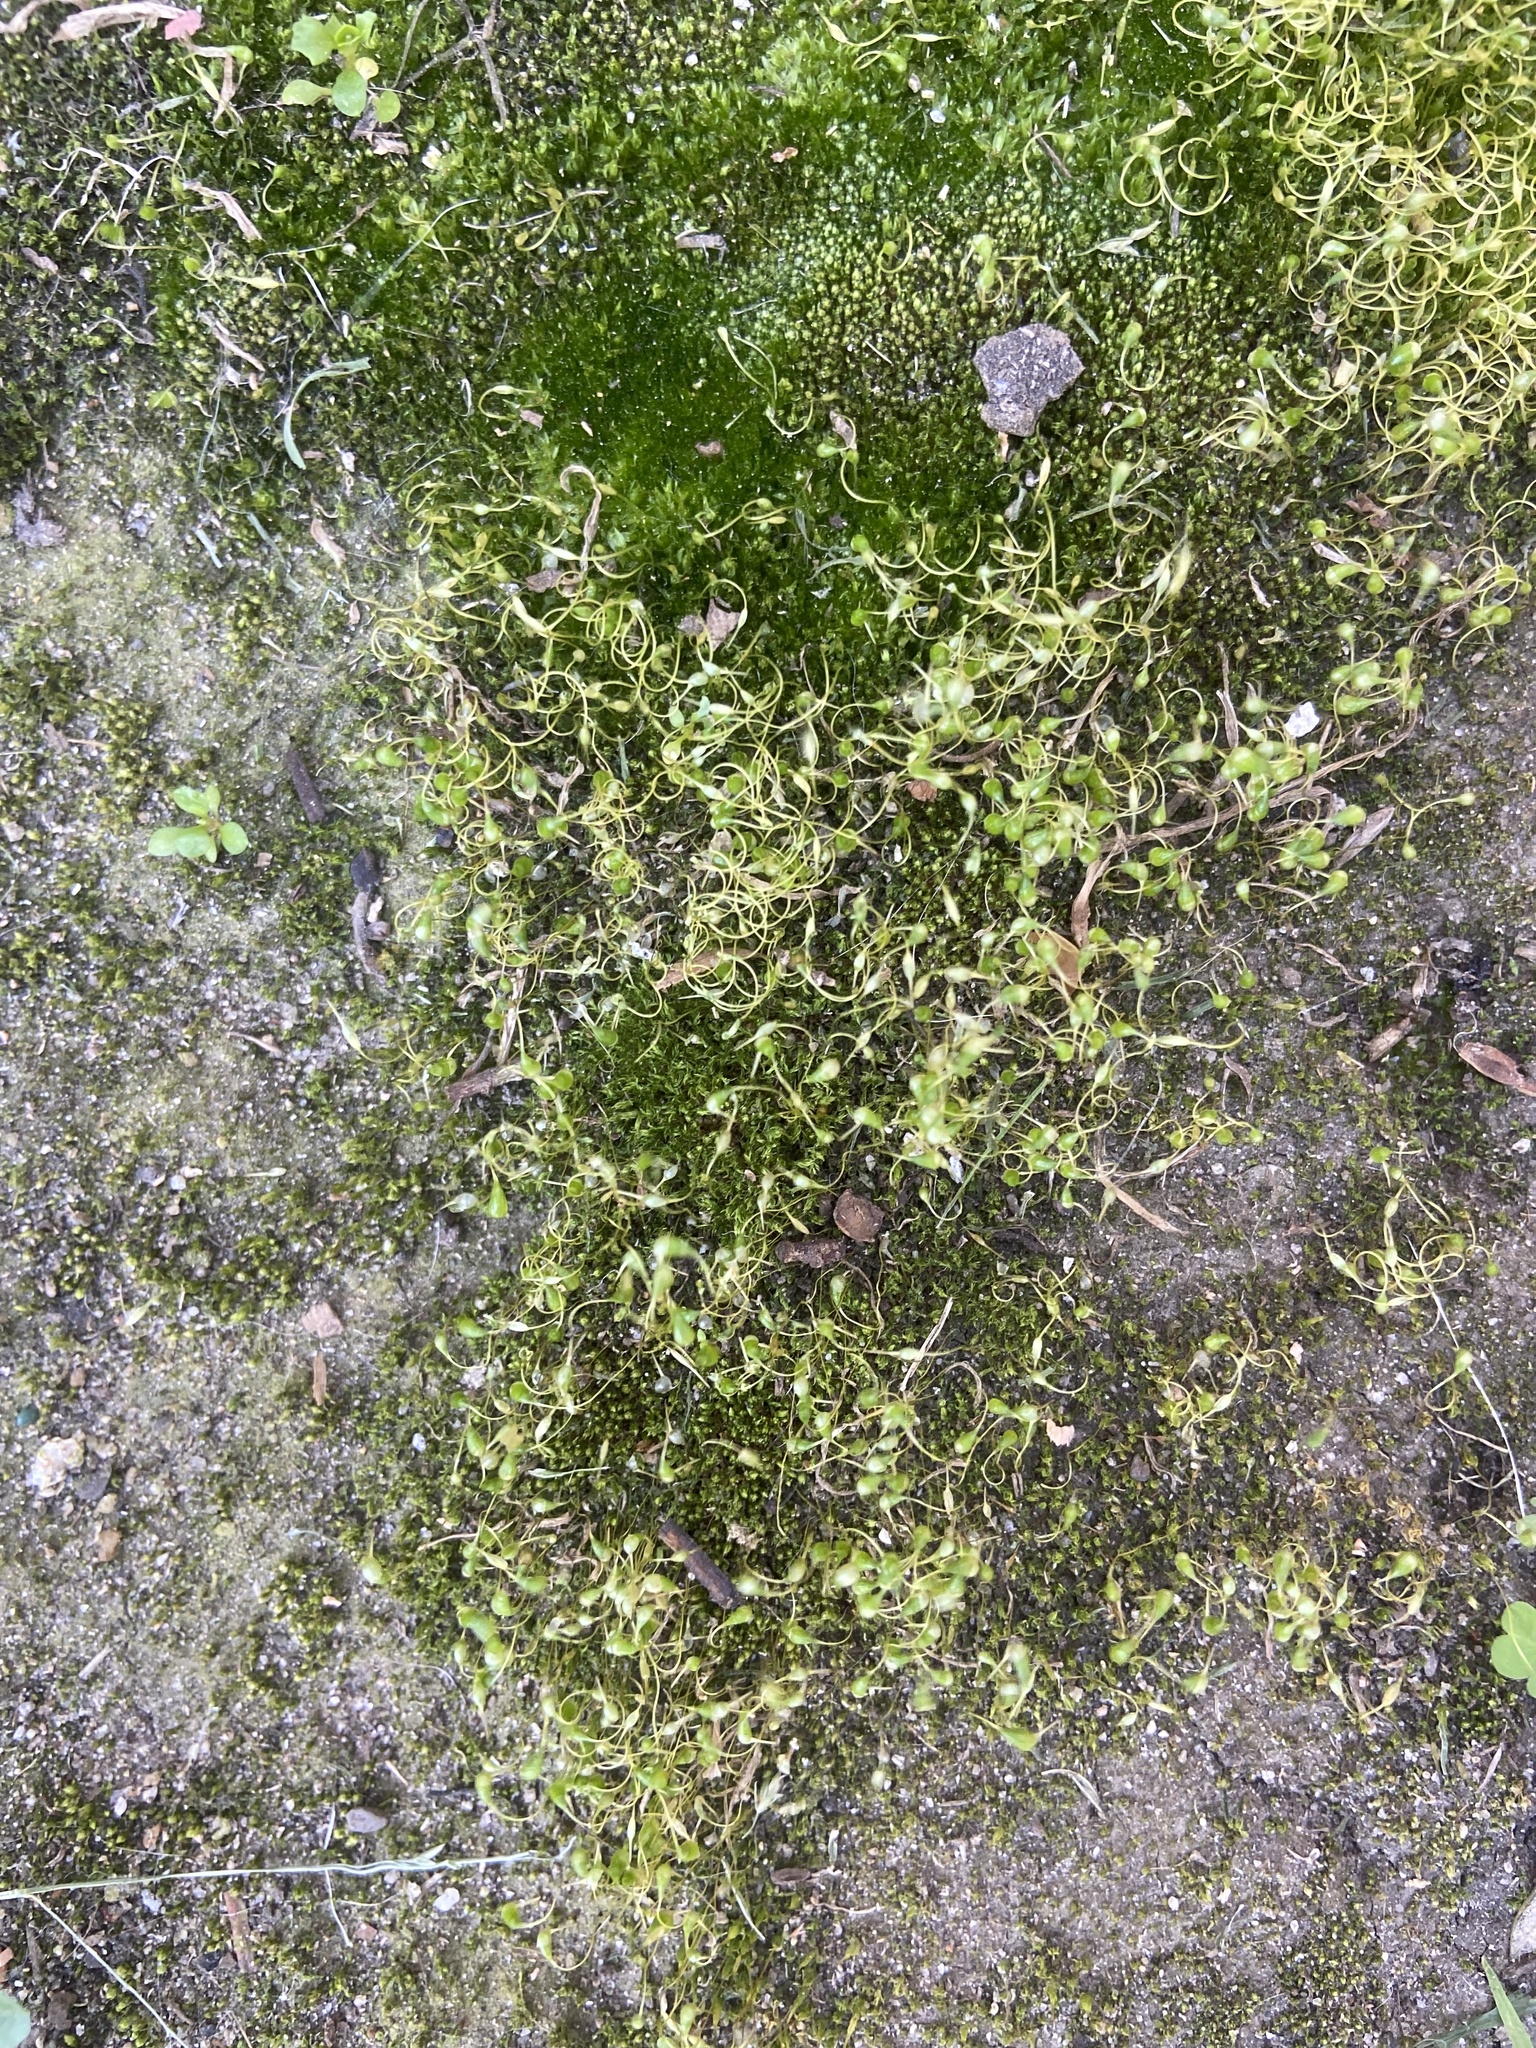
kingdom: Plantae
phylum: Bryophyta
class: Bryopsida
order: Funariales
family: Funariaceae
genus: Funaria
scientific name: Funaria hygrometrica
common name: Common cord moss
